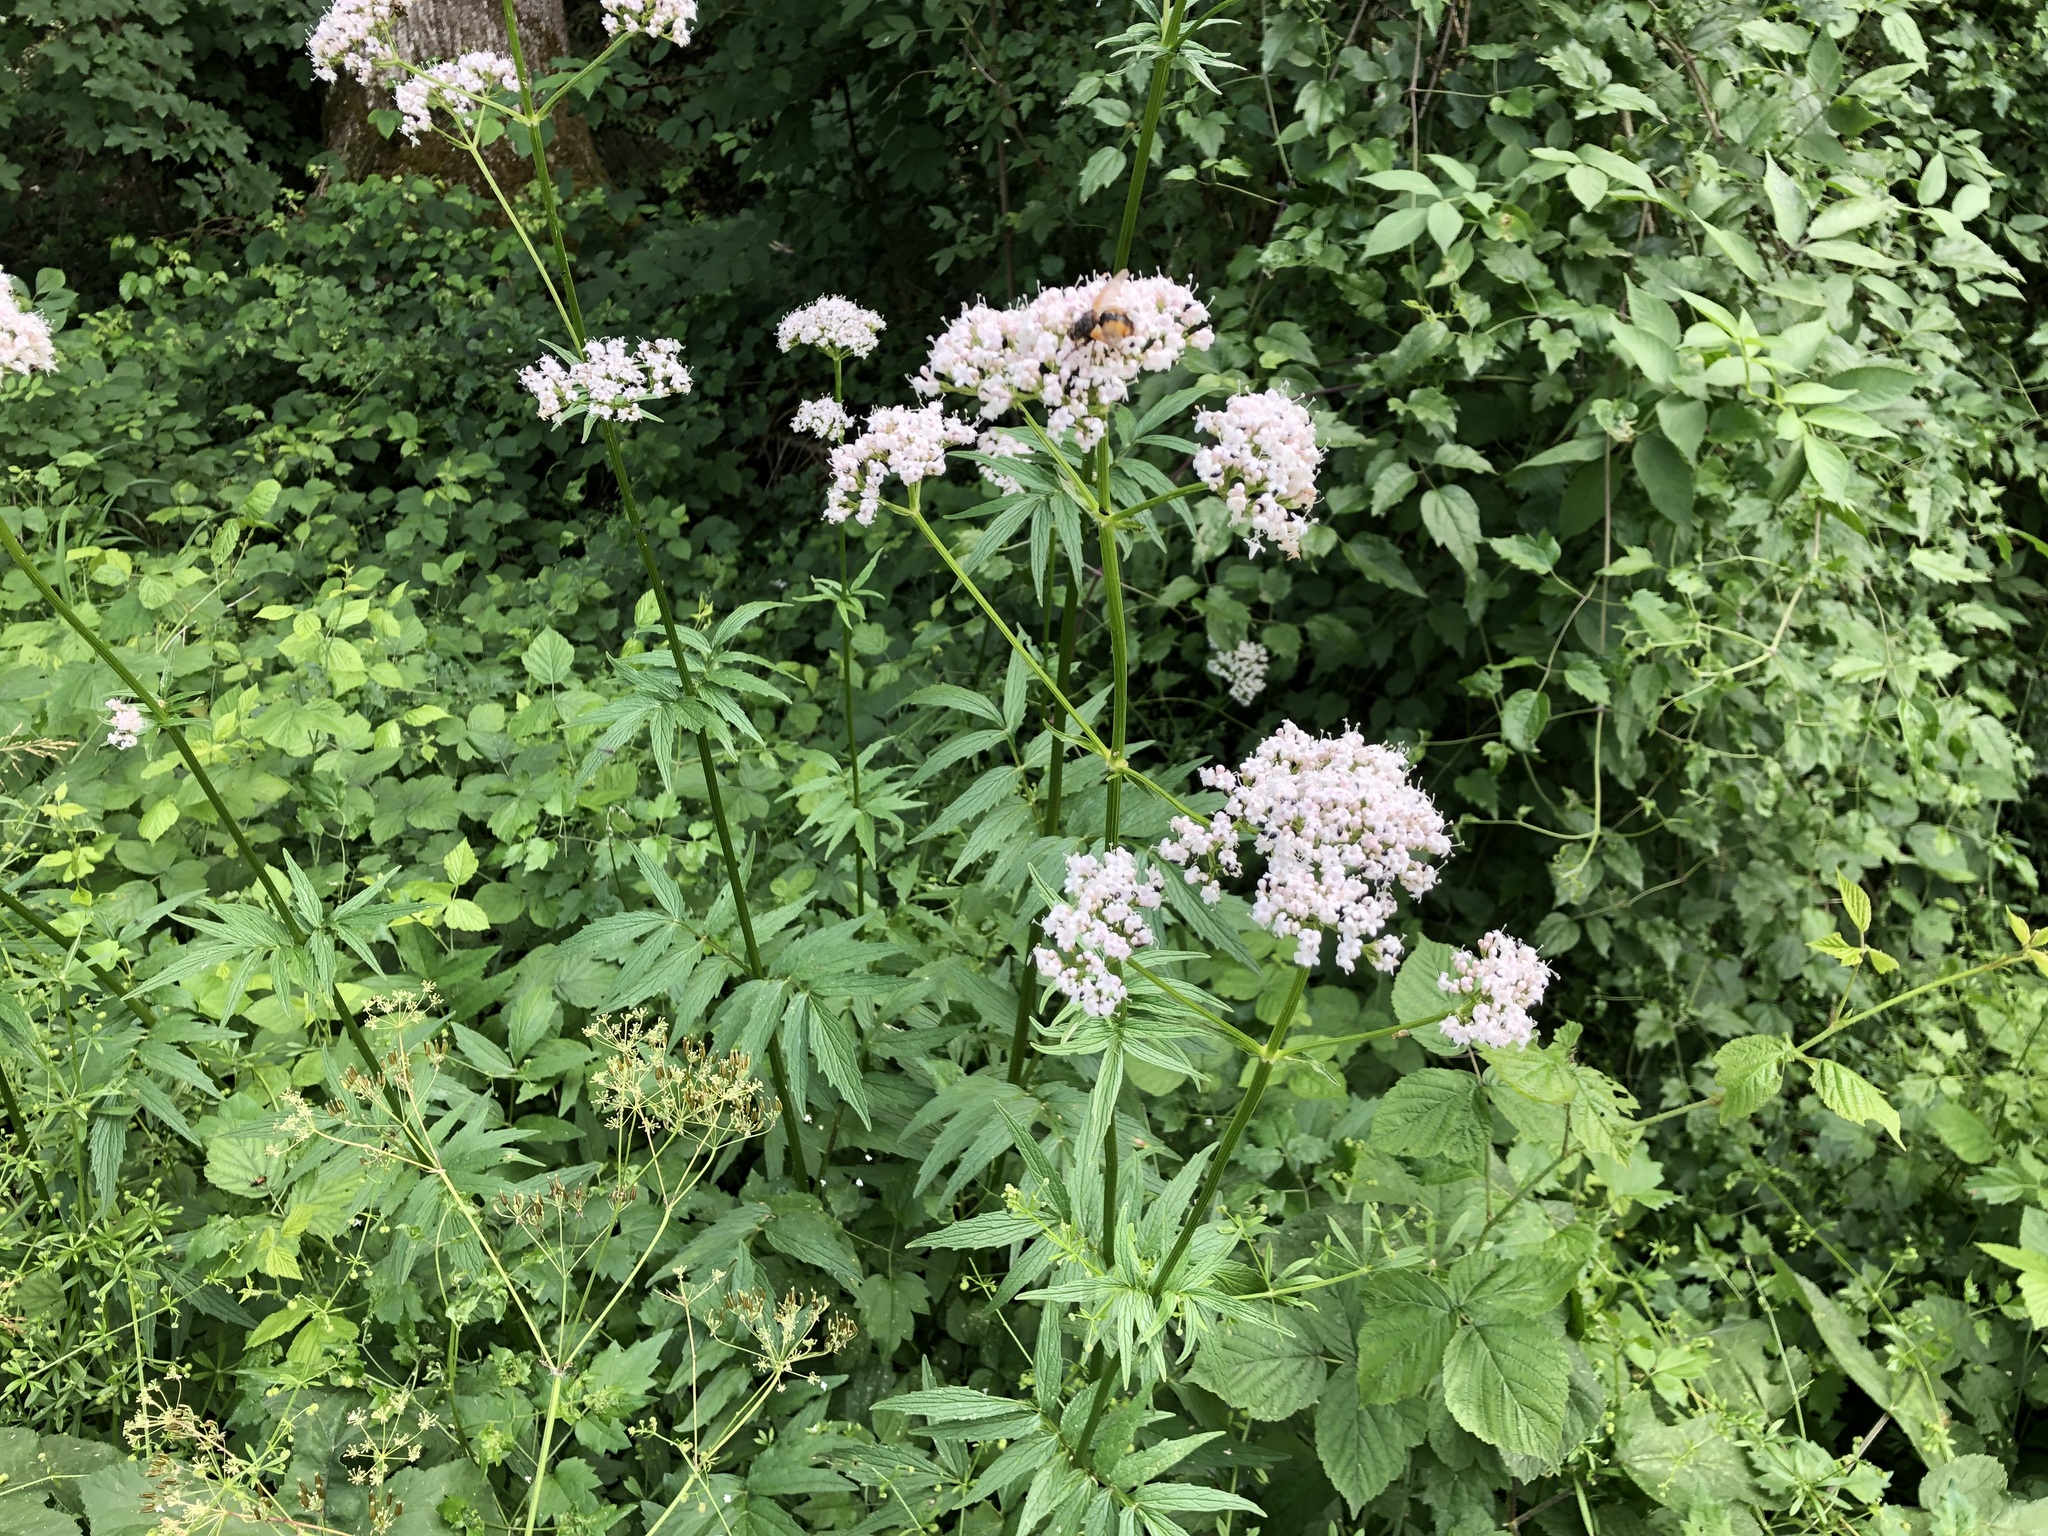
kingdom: Plantae
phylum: Tracheophyta
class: Magnoliopsida
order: Dipsacales
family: Caprifoliaceae
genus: Valeriana
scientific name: Valeriana officinalis
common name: Common valerian
